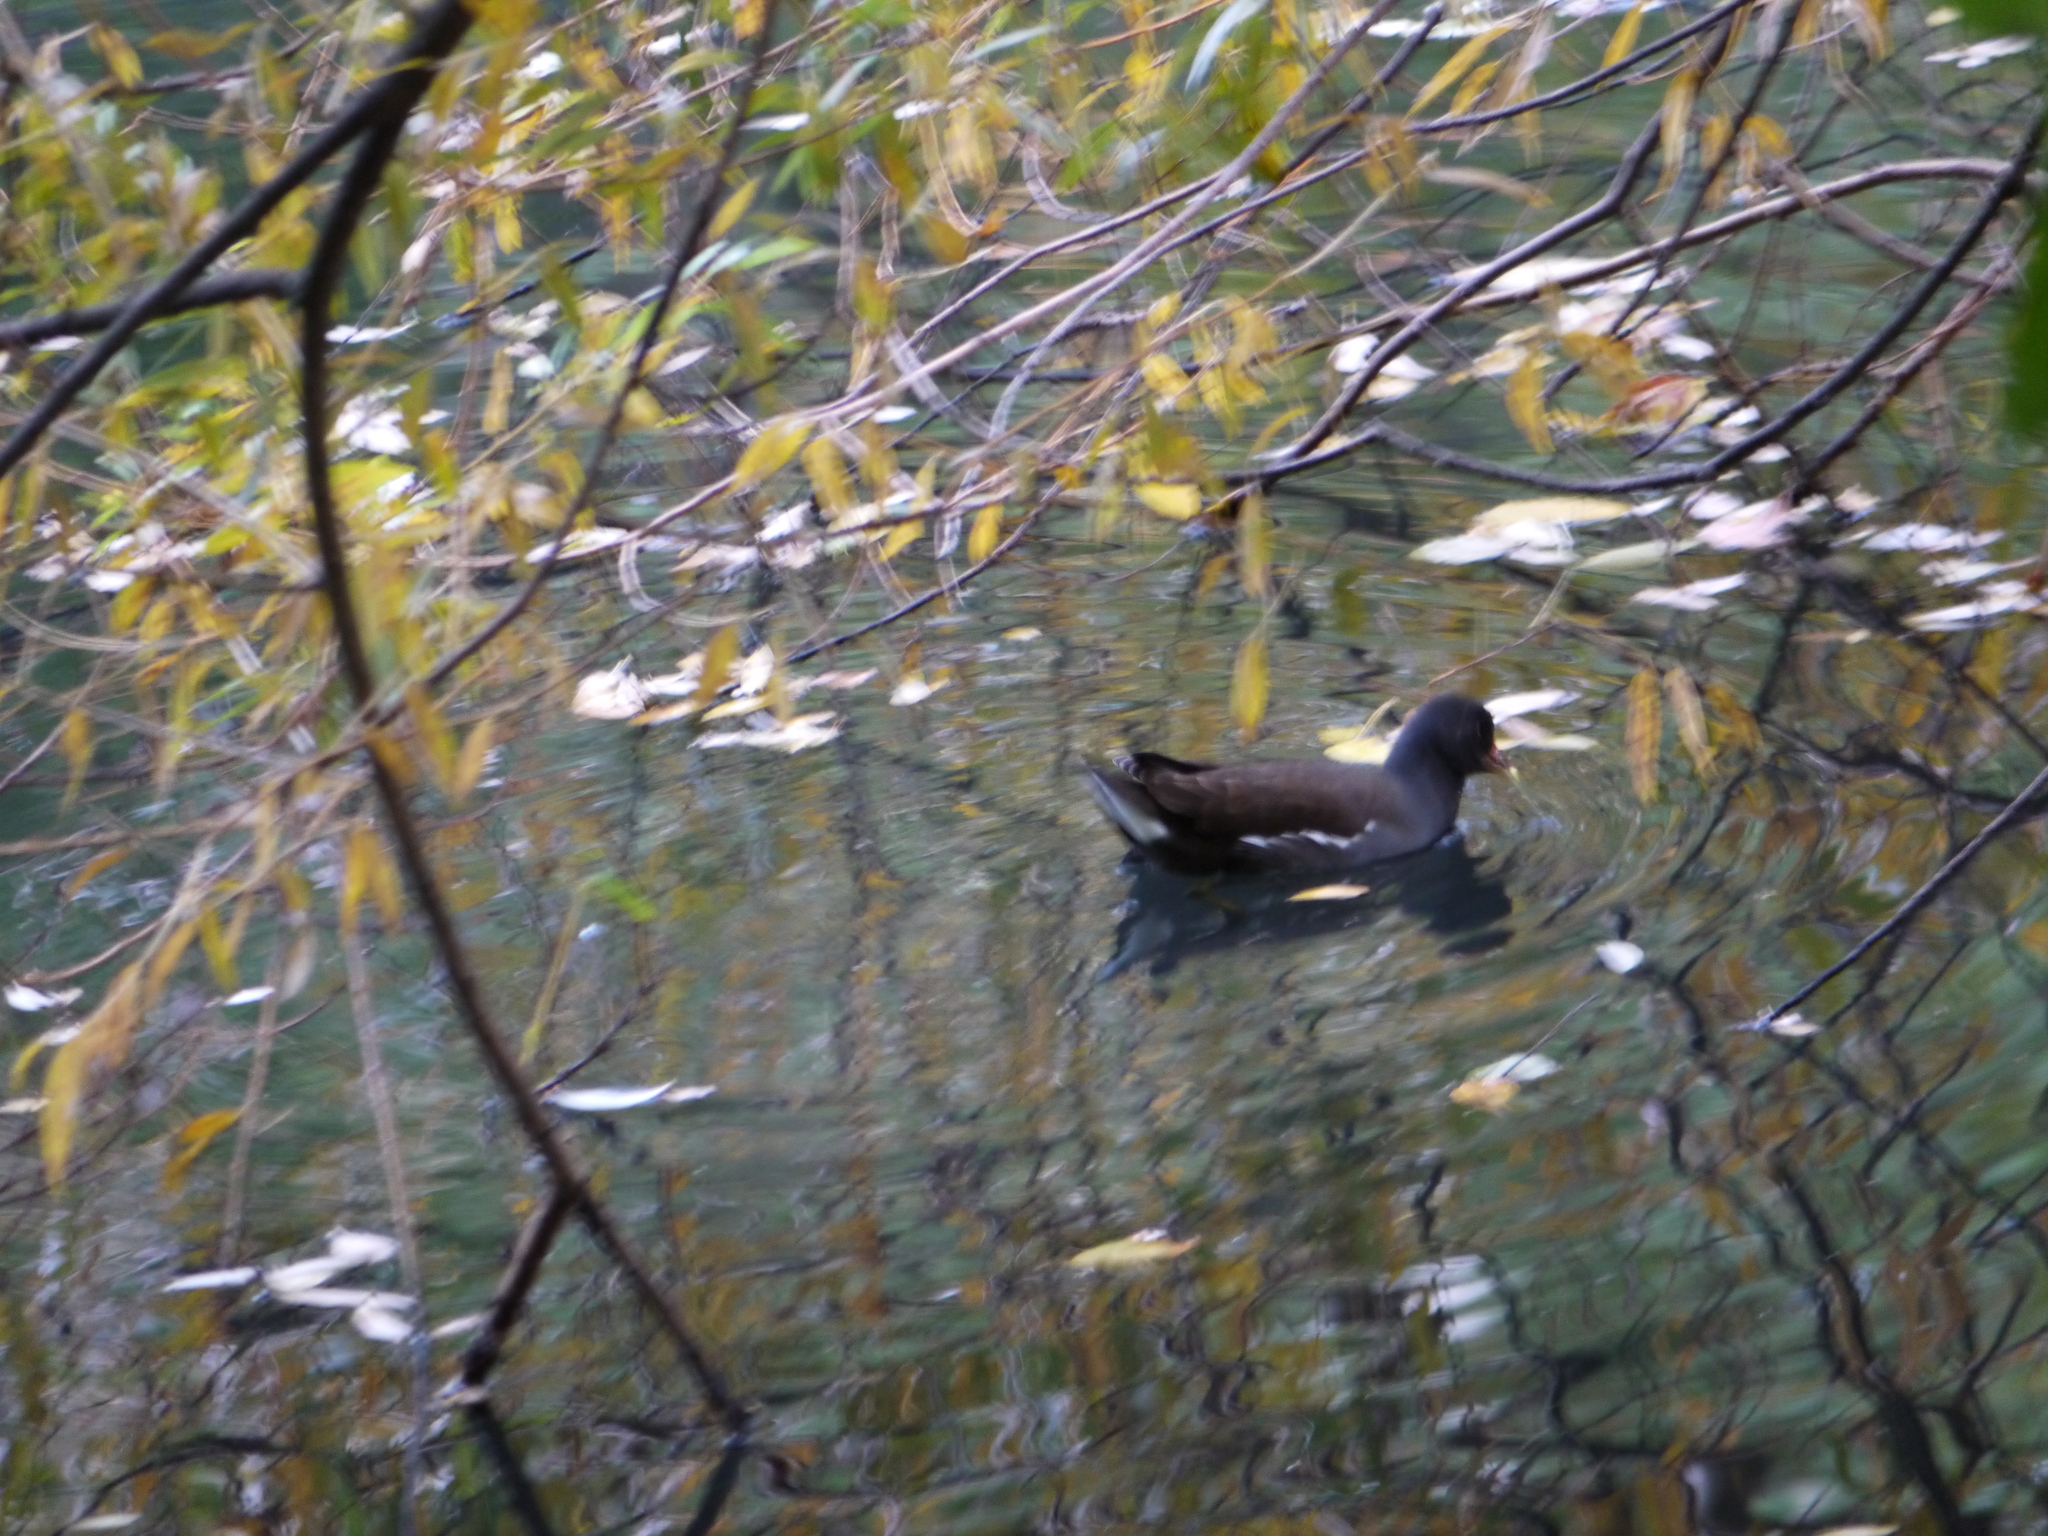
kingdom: Animalia
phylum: Chordata
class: Aves
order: Gruiformes
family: Rallidae
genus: Gallinula
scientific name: Gallinula chloropus
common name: Common moorhen
